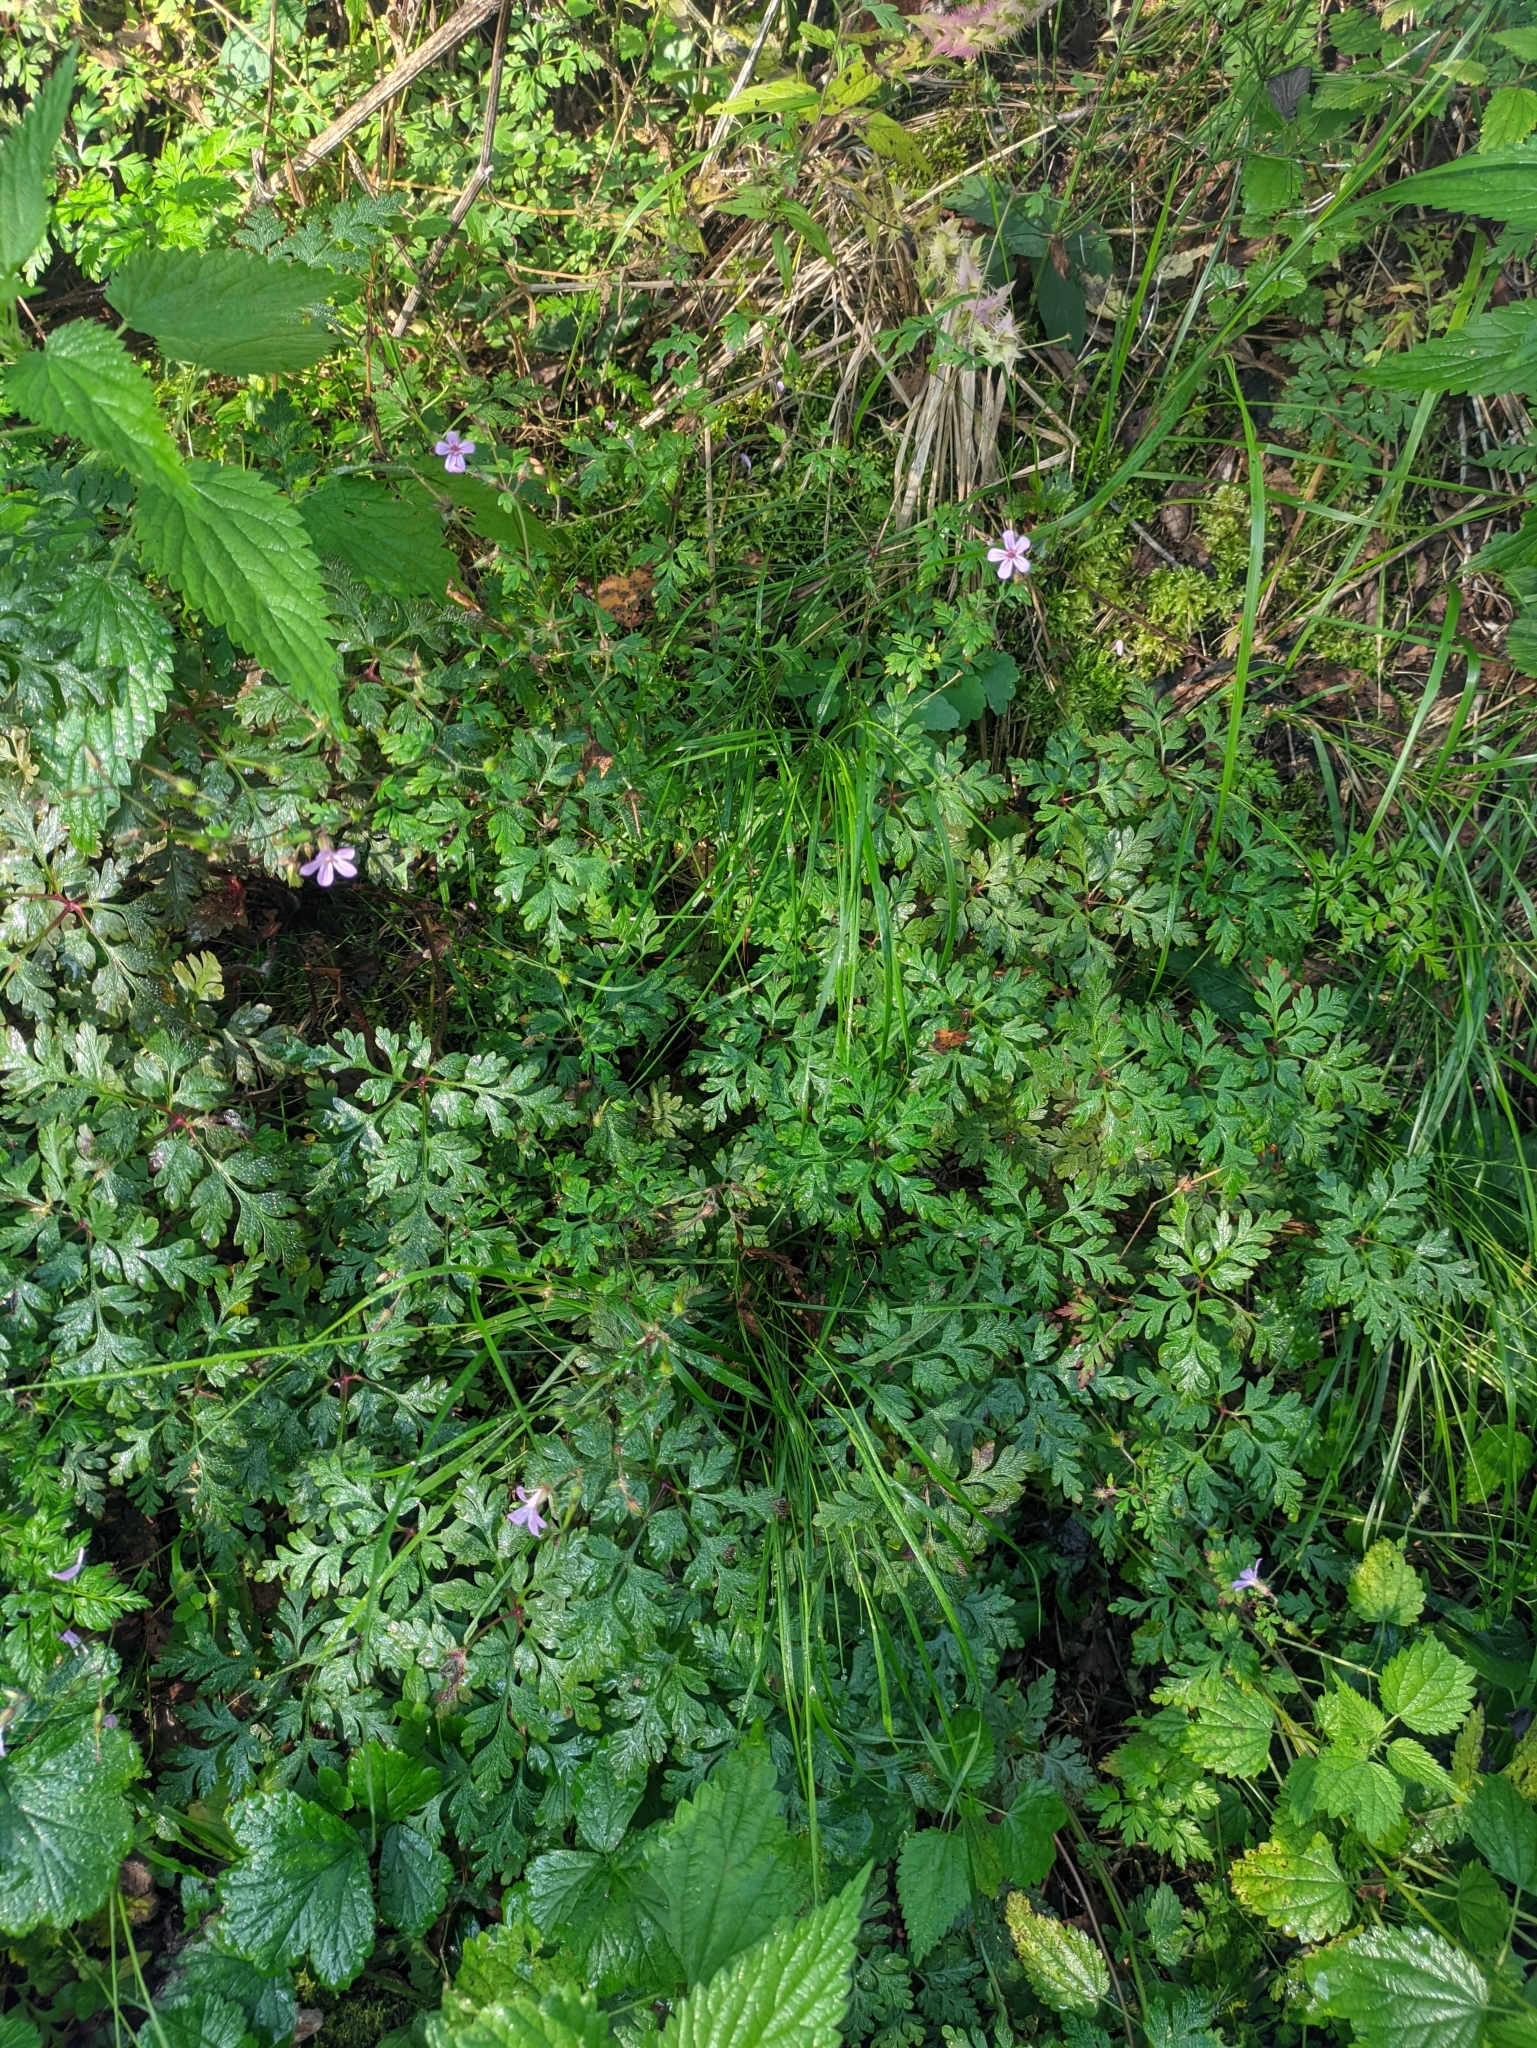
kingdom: Plantae
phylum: Tracheophyta
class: Magnoliopsida
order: Geraniales
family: Geraniaceae
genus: Geranium
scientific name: Geranium robertianum
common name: Herb-robert
